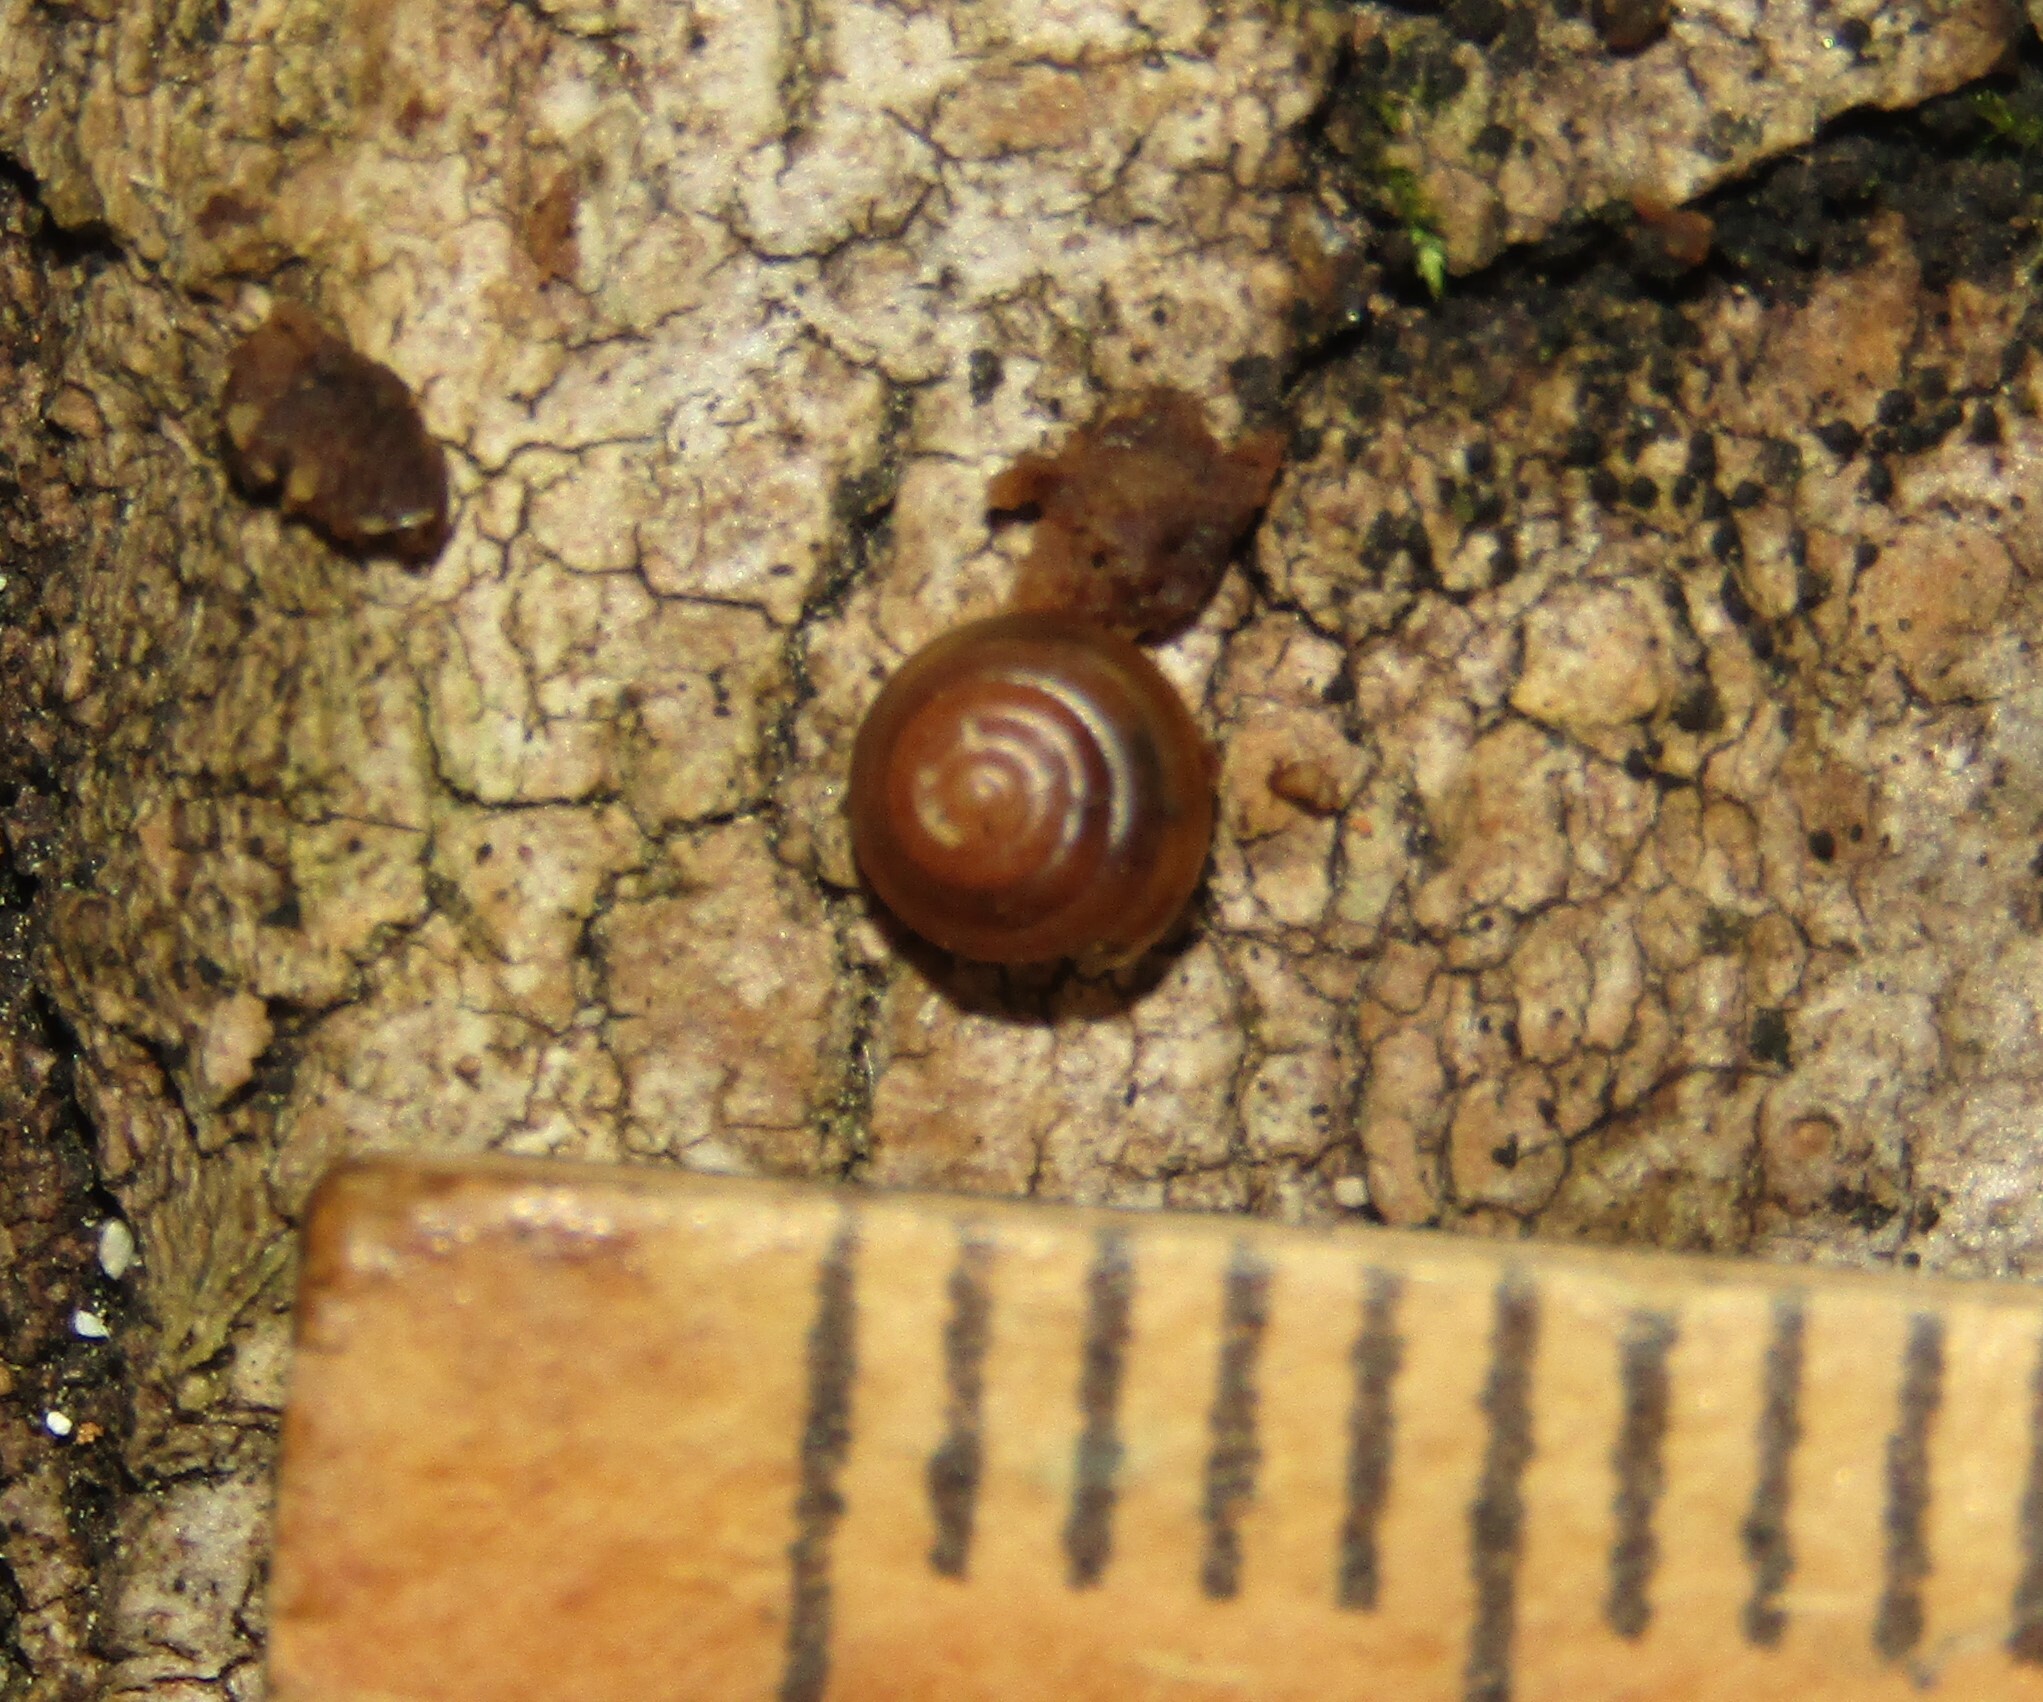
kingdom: Animalia
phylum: Mollusca
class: Gastropoda
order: Stylommatophora
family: Euconulidae
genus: Euconulus
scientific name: Euconulus fulvus
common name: Tawny glass snail
